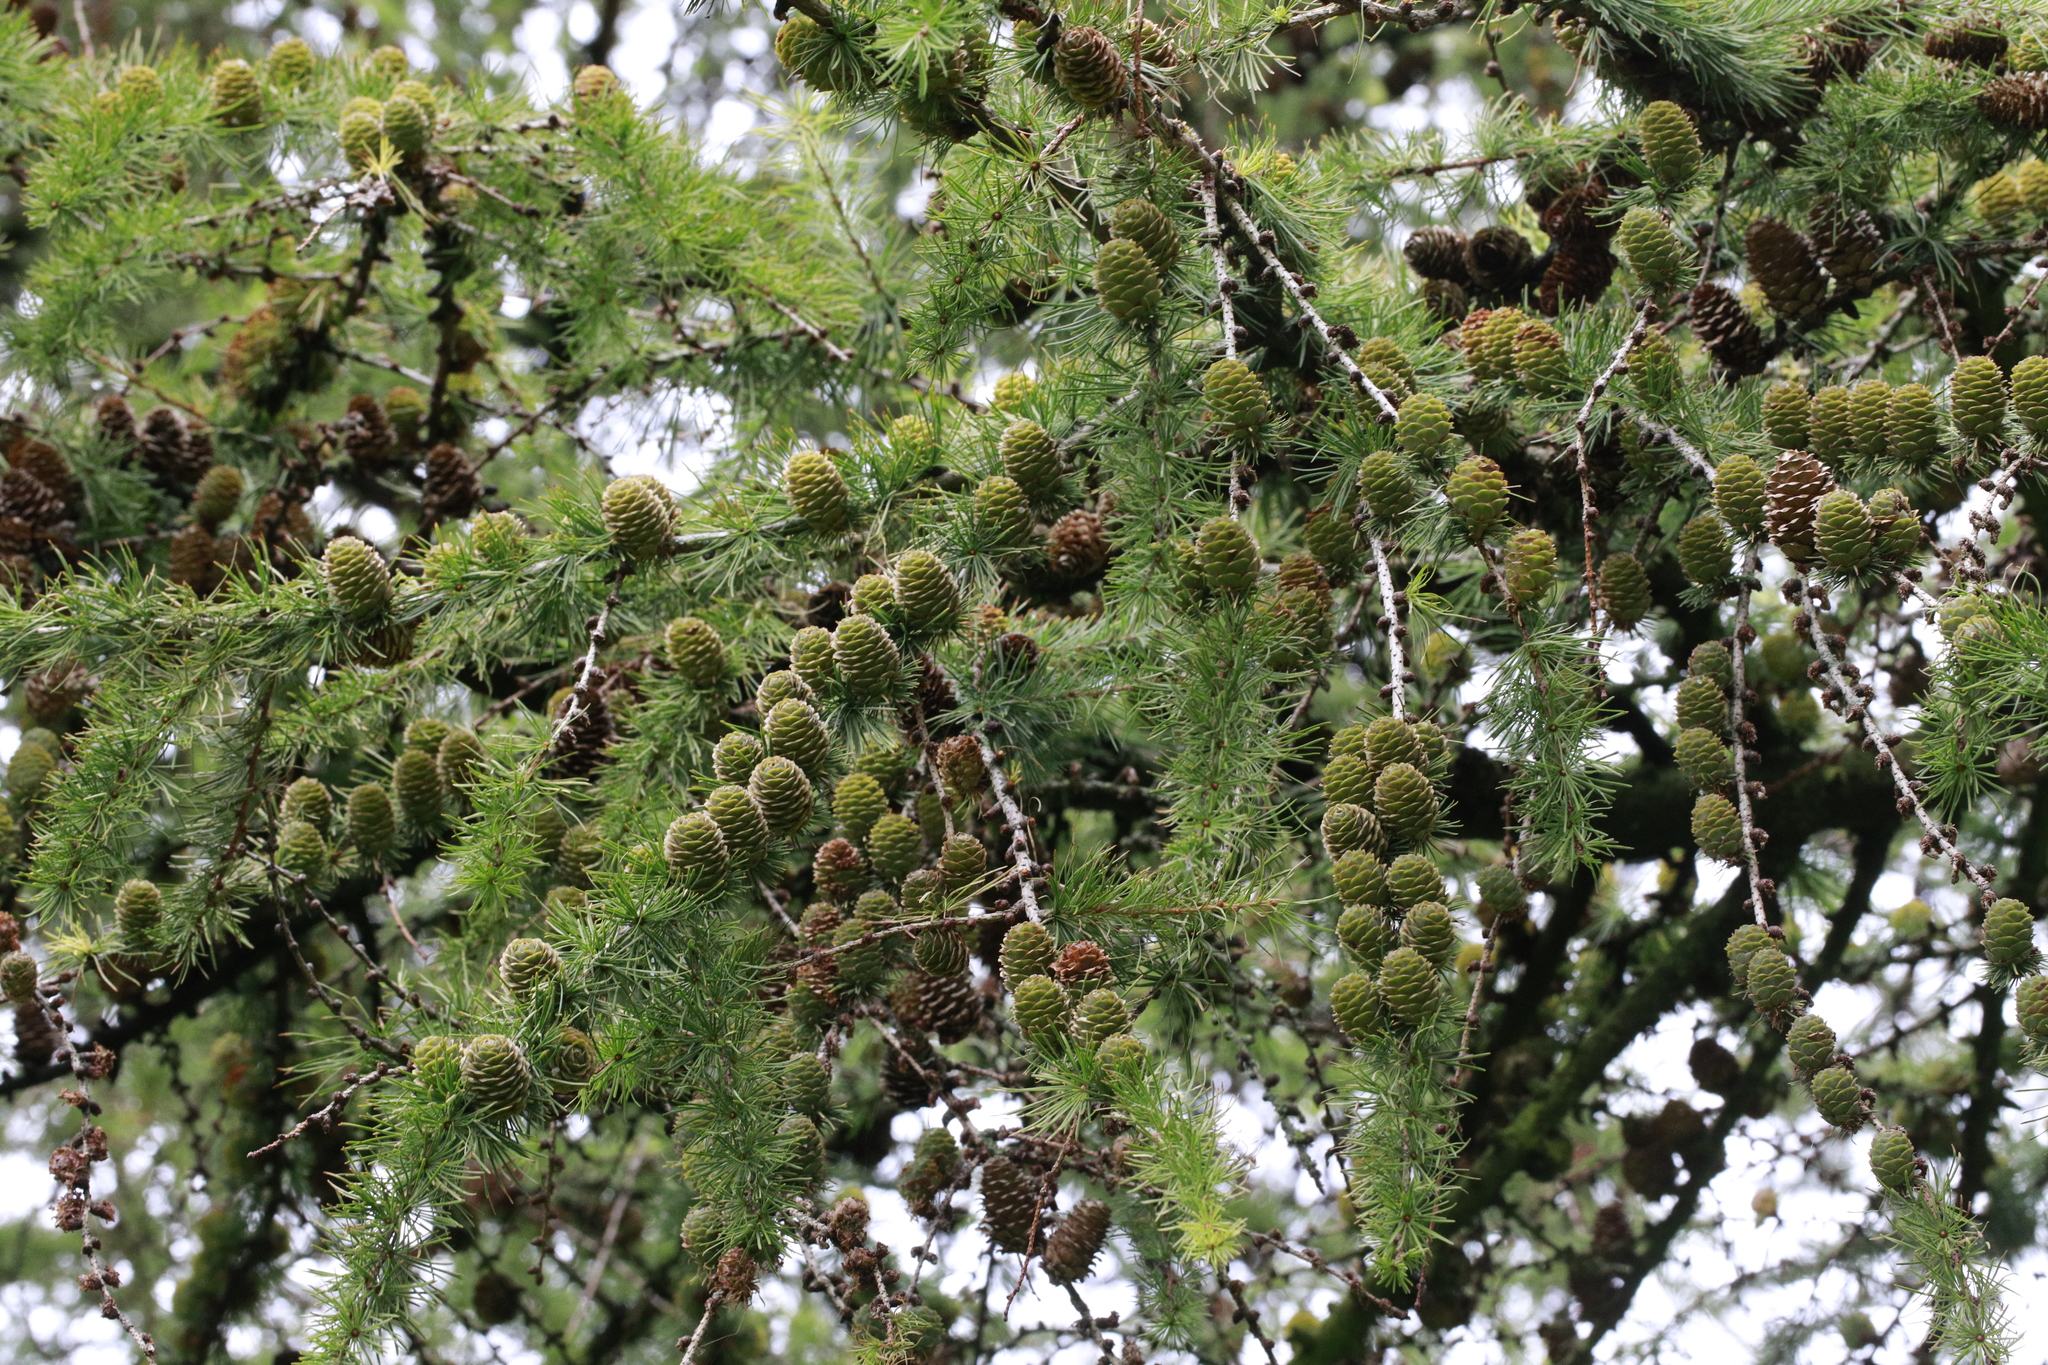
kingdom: Plantae
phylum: Tracheophyta
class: Pinopsida
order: Pinales
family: Pinaceae
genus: Larix
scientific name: Larix decidua
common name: European larch
